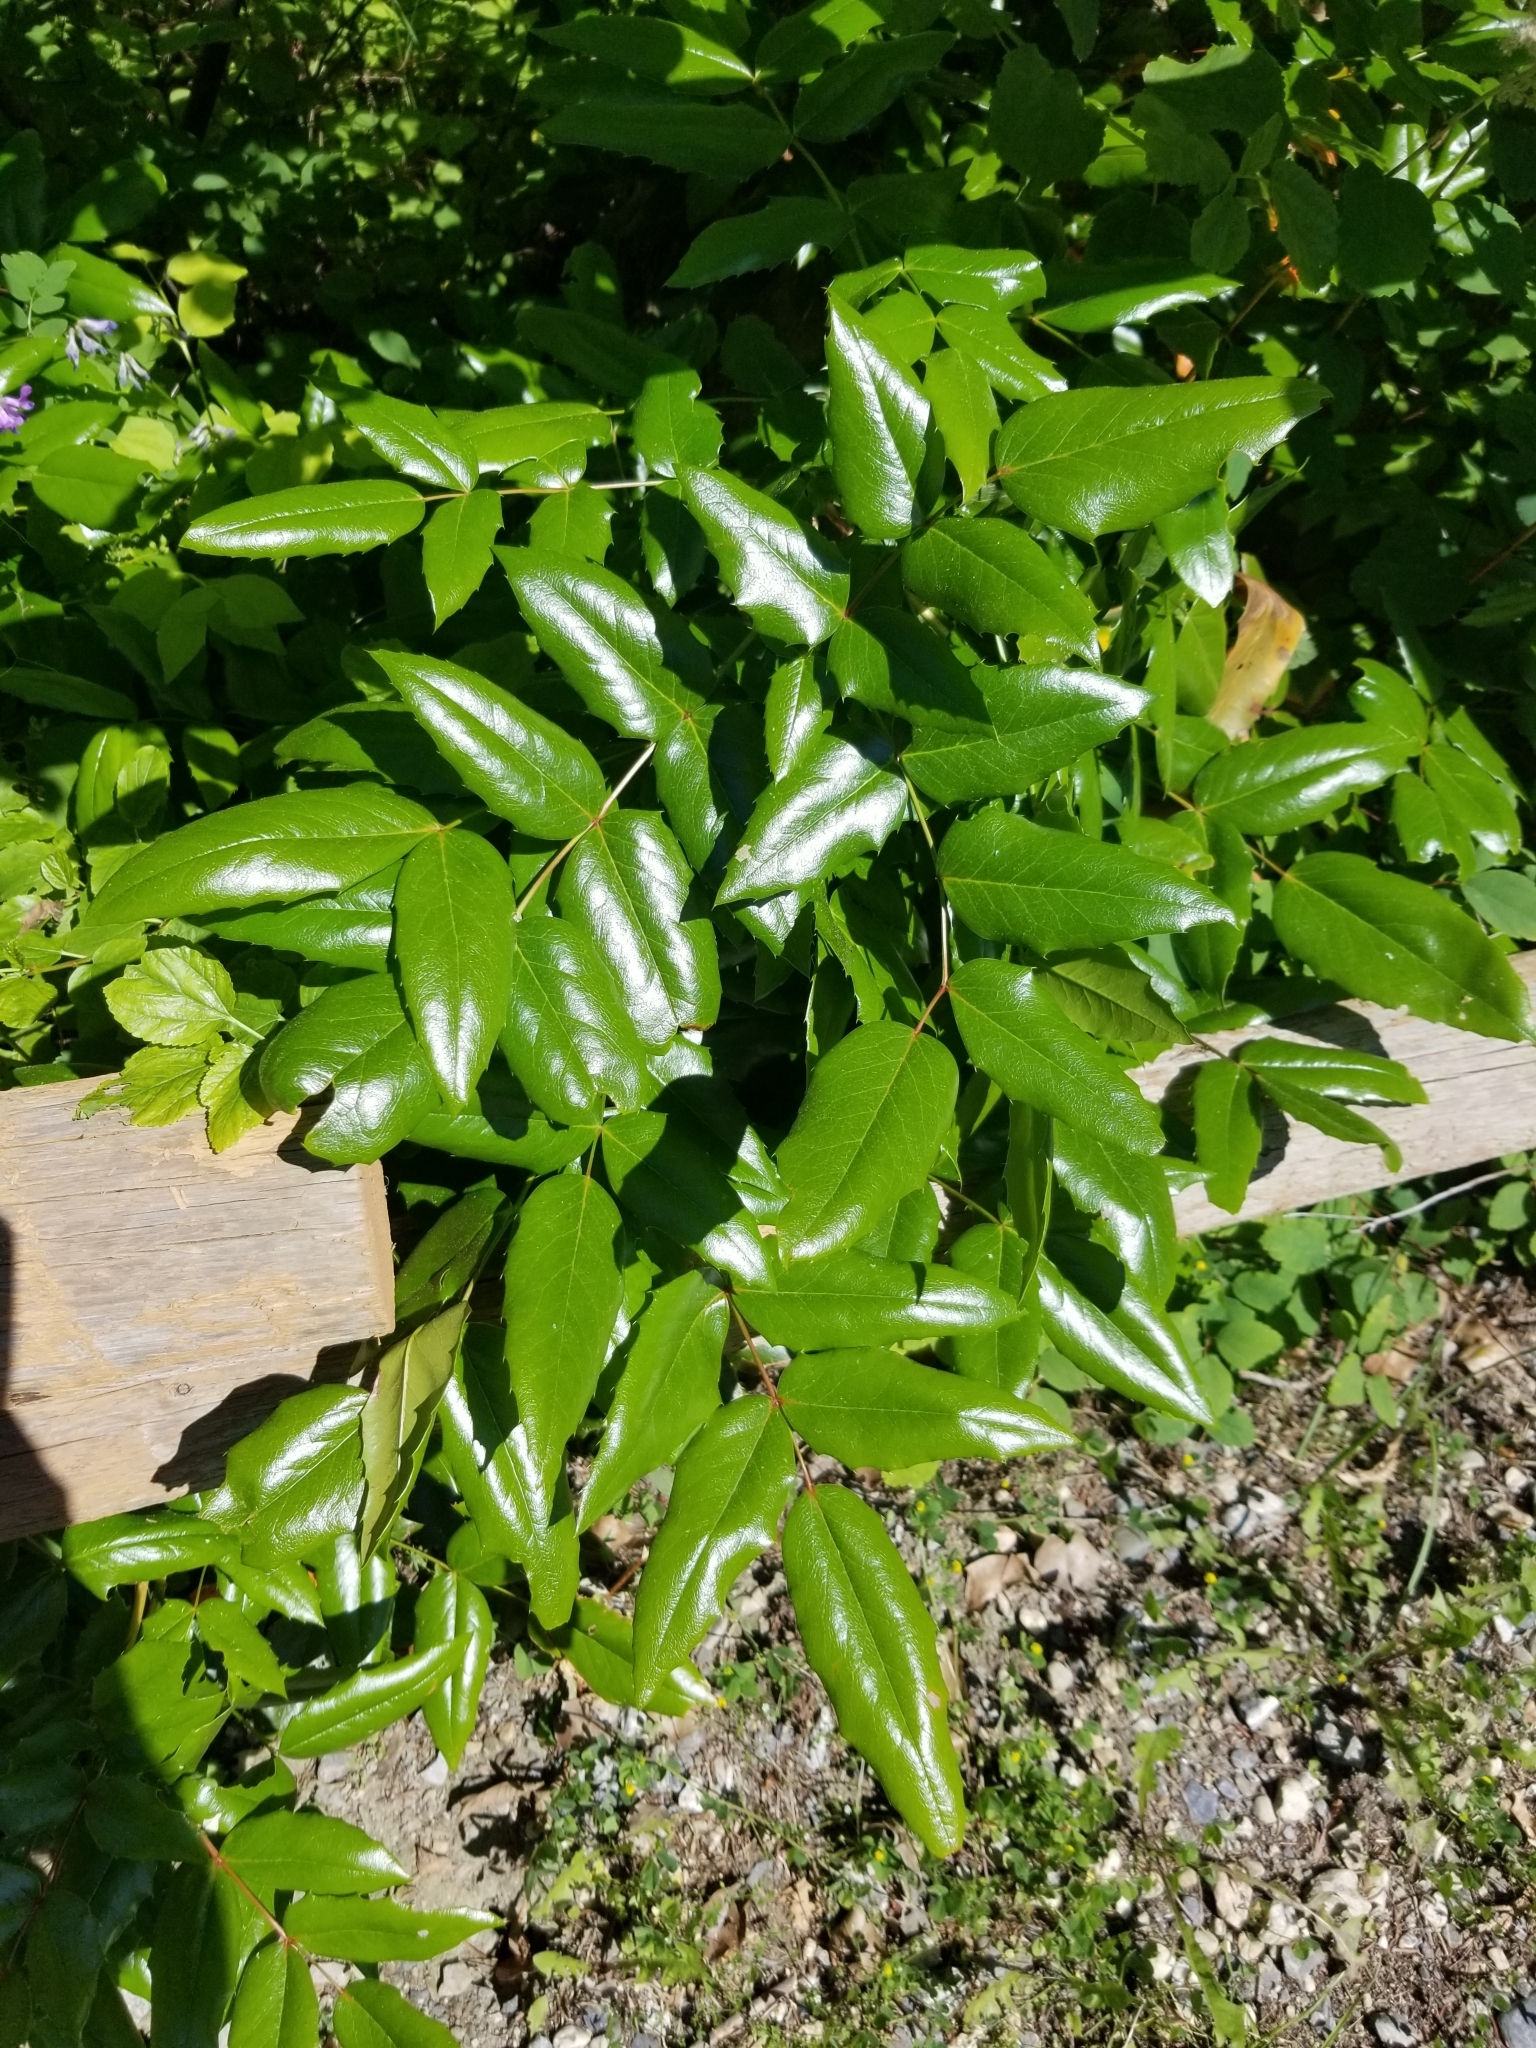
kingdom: Plantae
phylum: Tracheophyta
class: Magnoliopsida
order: Ranunculales
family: Berberidaceae
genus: Mahonia
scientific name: Mahonia aquifolium
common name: Oregon-grape
